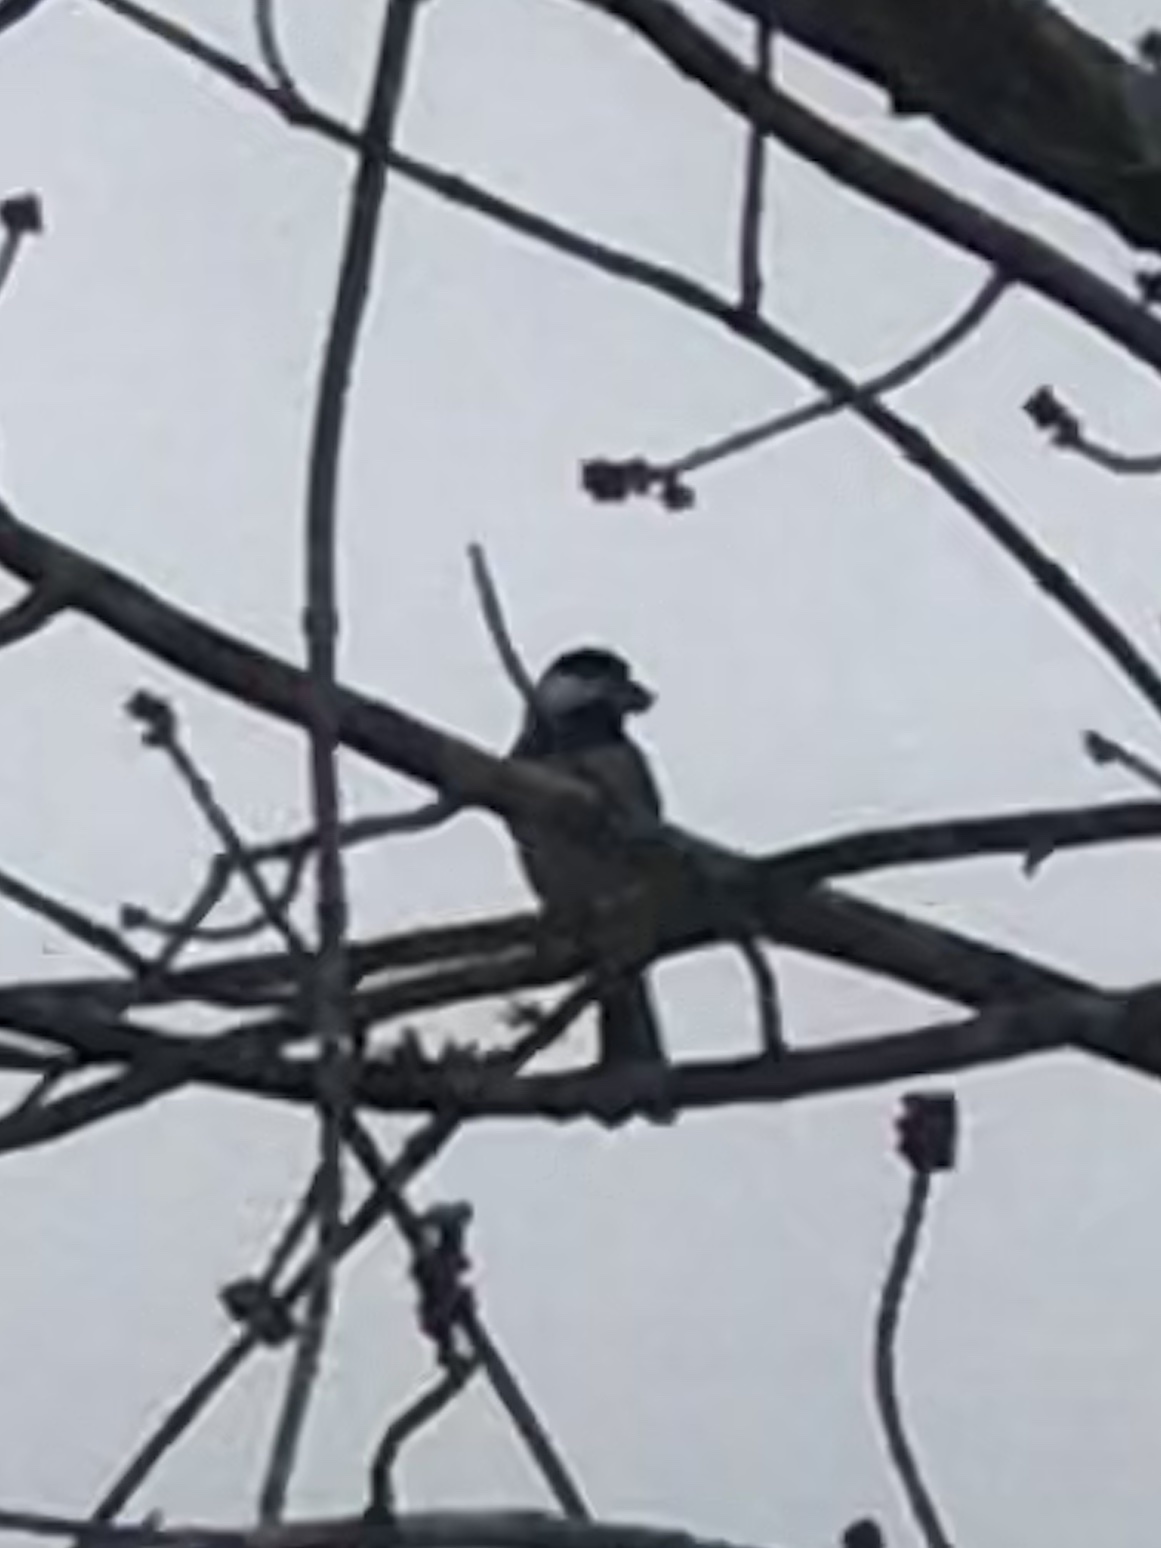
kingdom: Animalia
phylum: Chordata
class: Aves
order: Passeriformes
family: Paridae
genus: Poecile
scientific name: Poecile carolinensis
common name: Carolina chickadee
